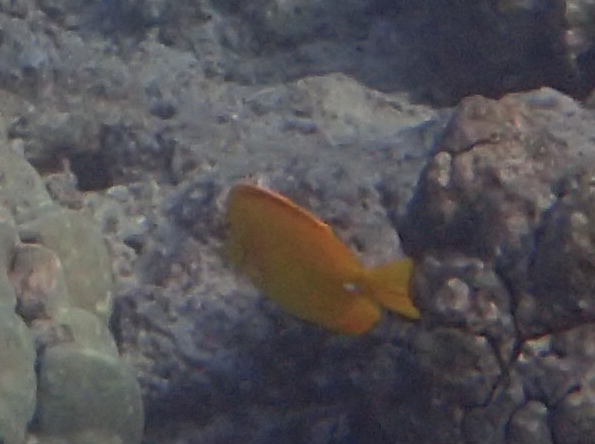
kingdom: Animalia
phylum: Chordata
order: Perciformes
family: Acanthuridae
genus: Zebrasoma
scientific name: Zebrasoma flavescens
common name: Yellow tang
